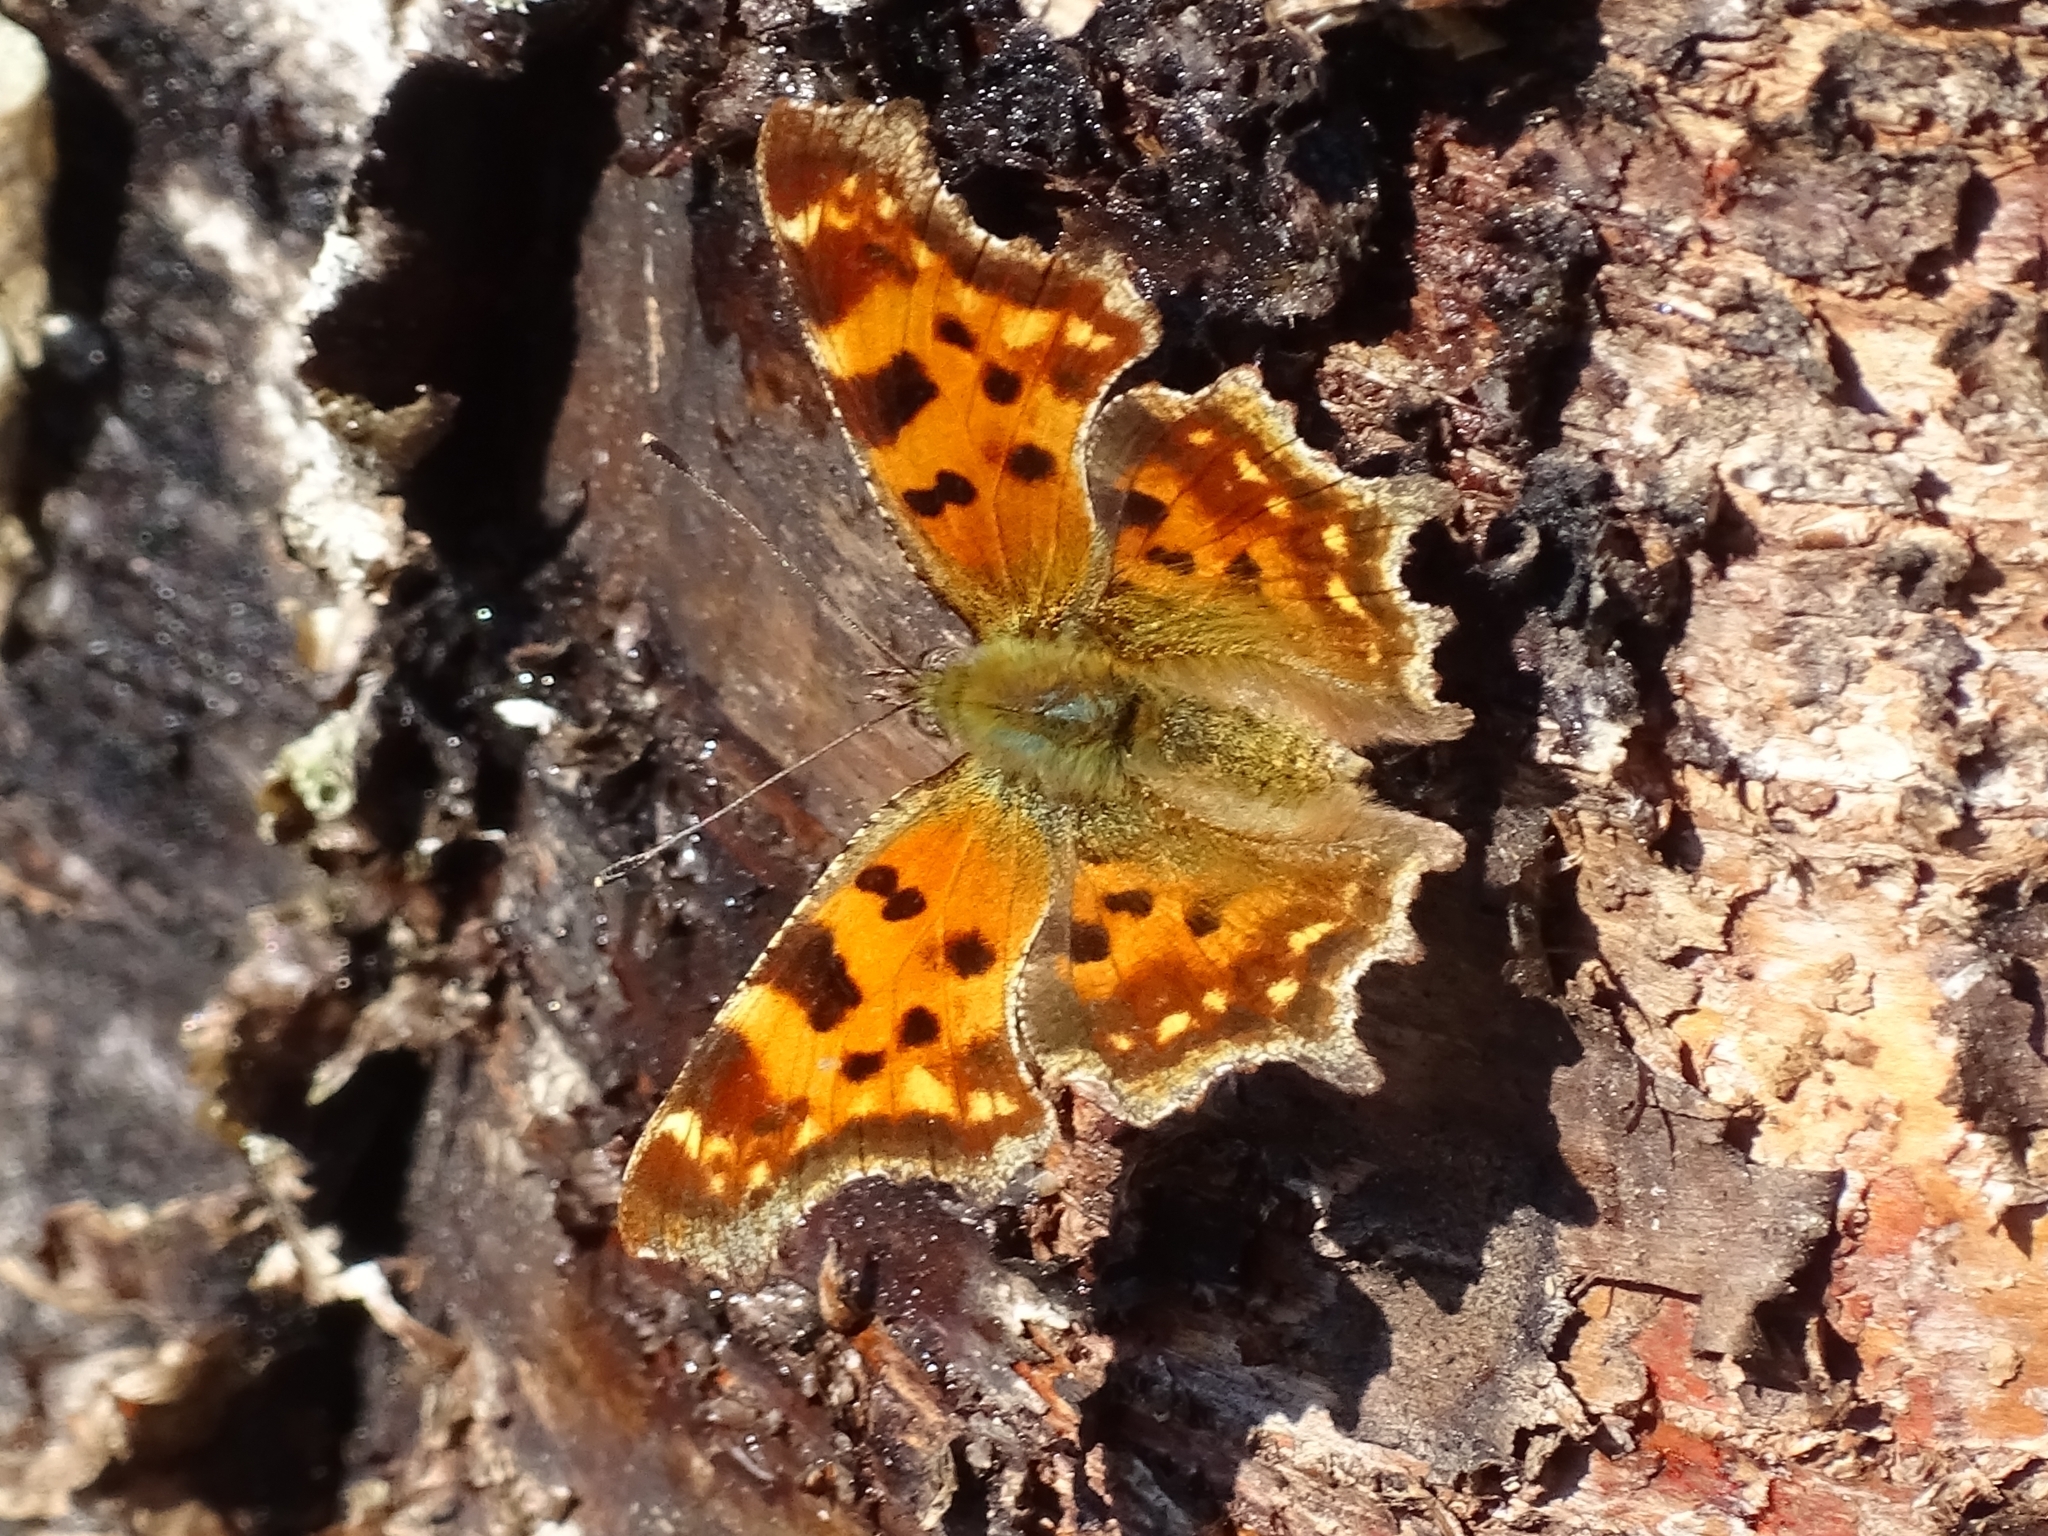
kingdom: Animalia
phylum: Arthropoda
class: Insecta
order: Lepidoptera
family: Nymphalidae
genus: Polygonia
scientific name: Polygonia c-album
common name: Comma
